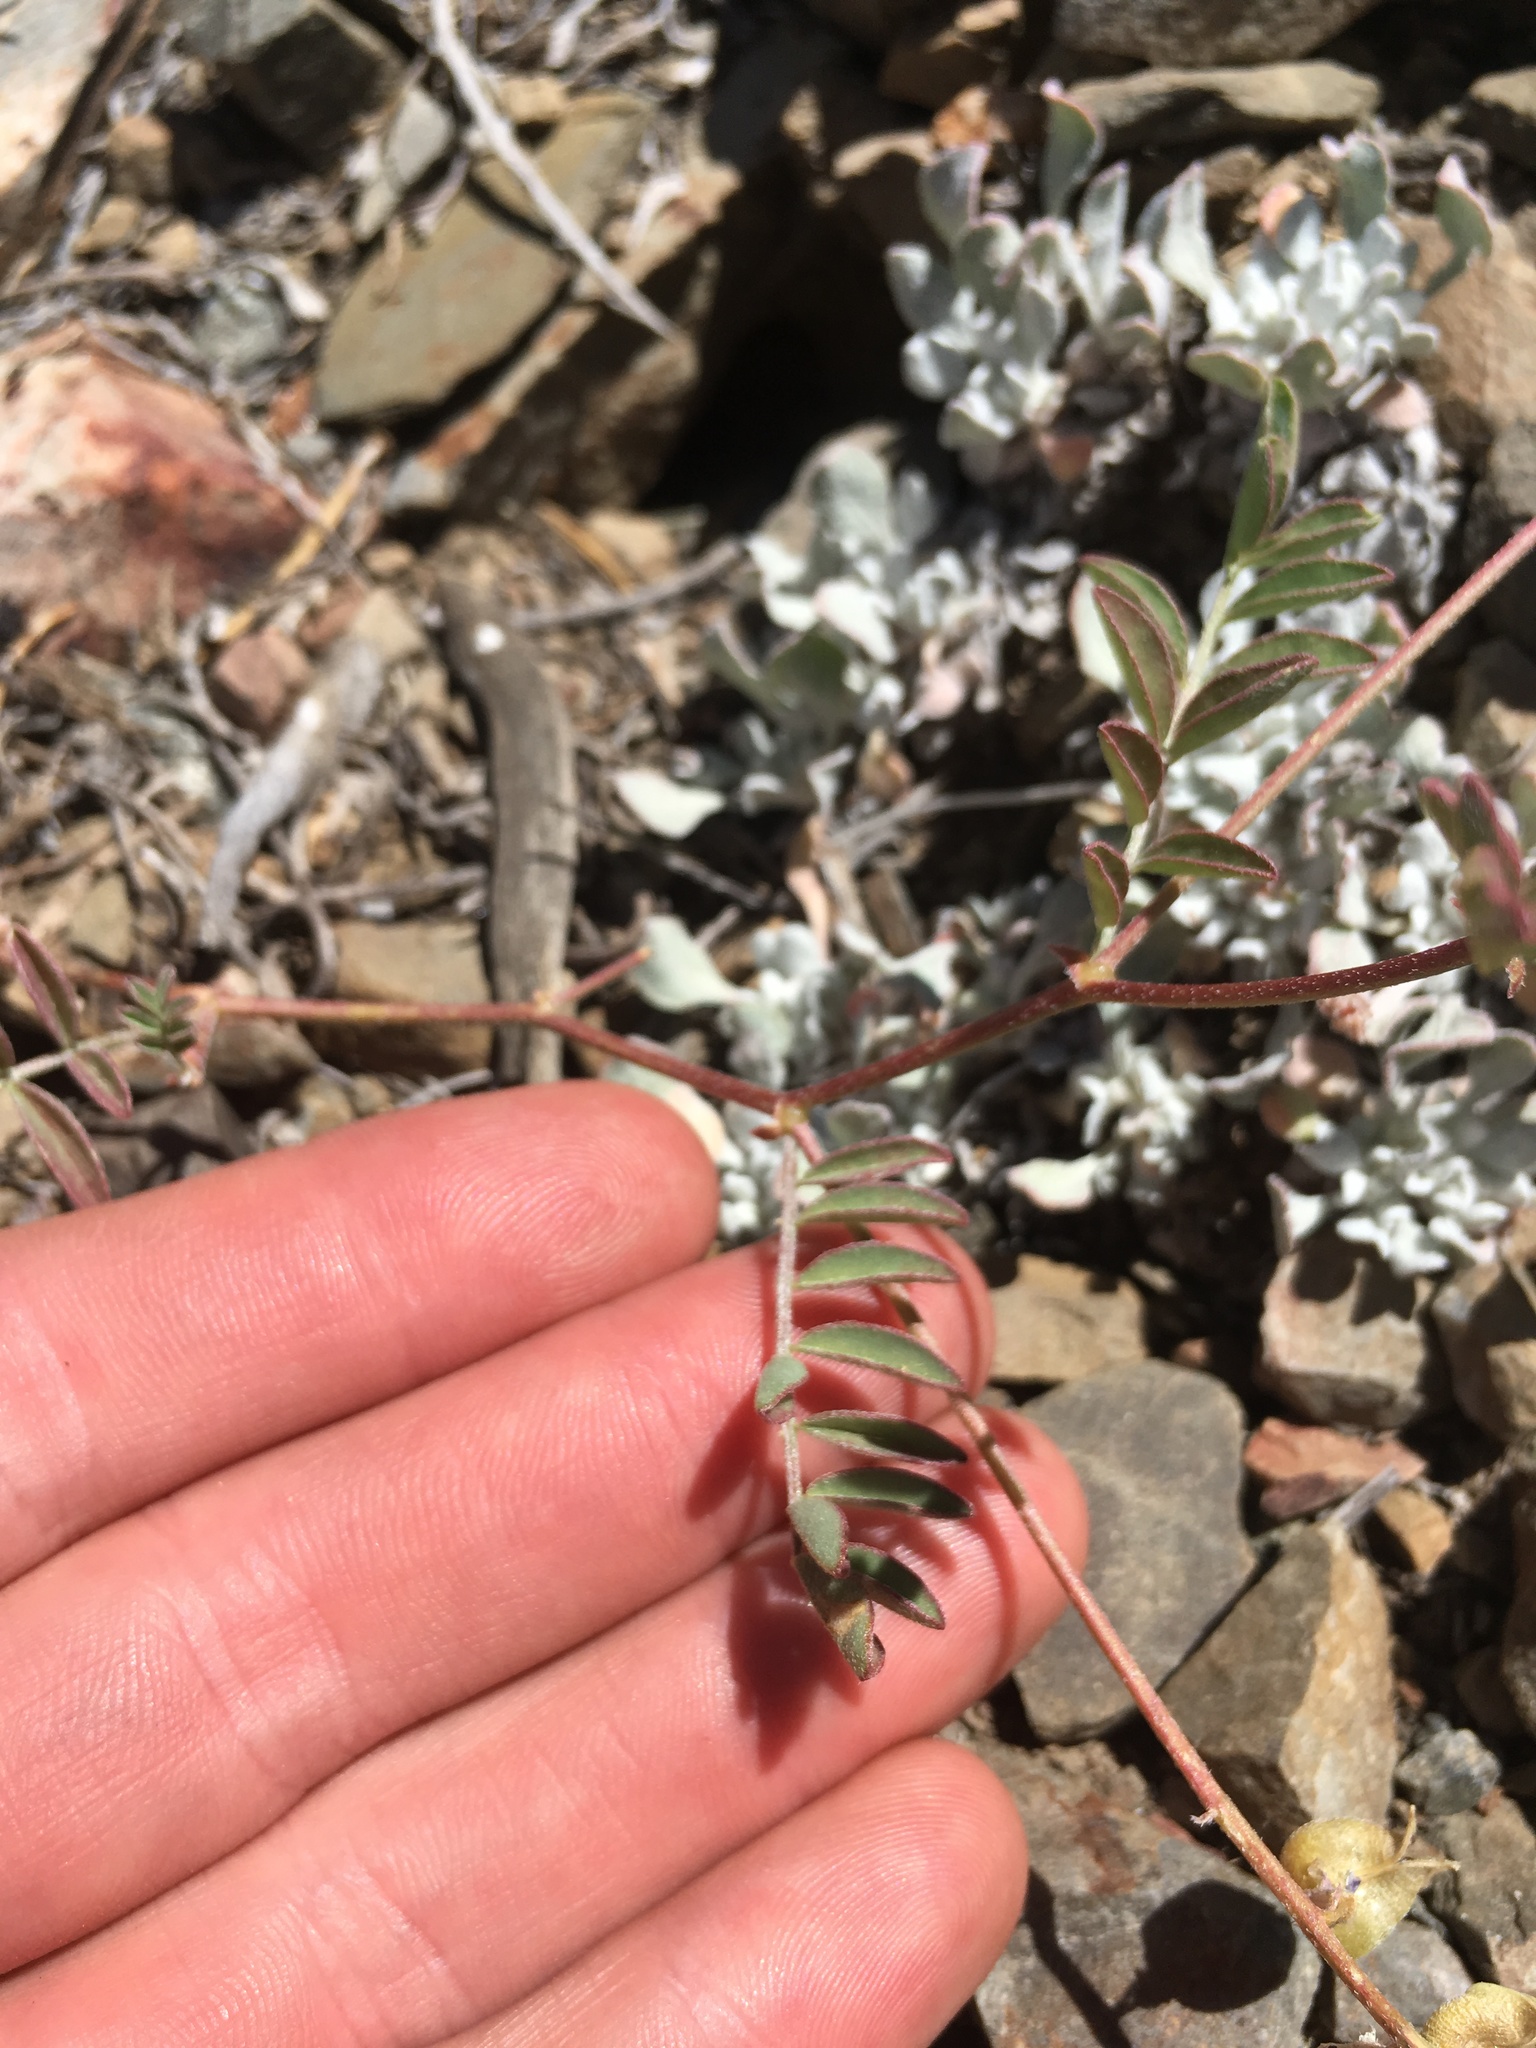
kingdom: Plantae
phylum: Tracheophyta
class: Magnoliopsida
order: Fabales
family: Fabaceae
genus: Astragalus
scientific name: Astragalus inyoensis
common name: Inyo locoweed
